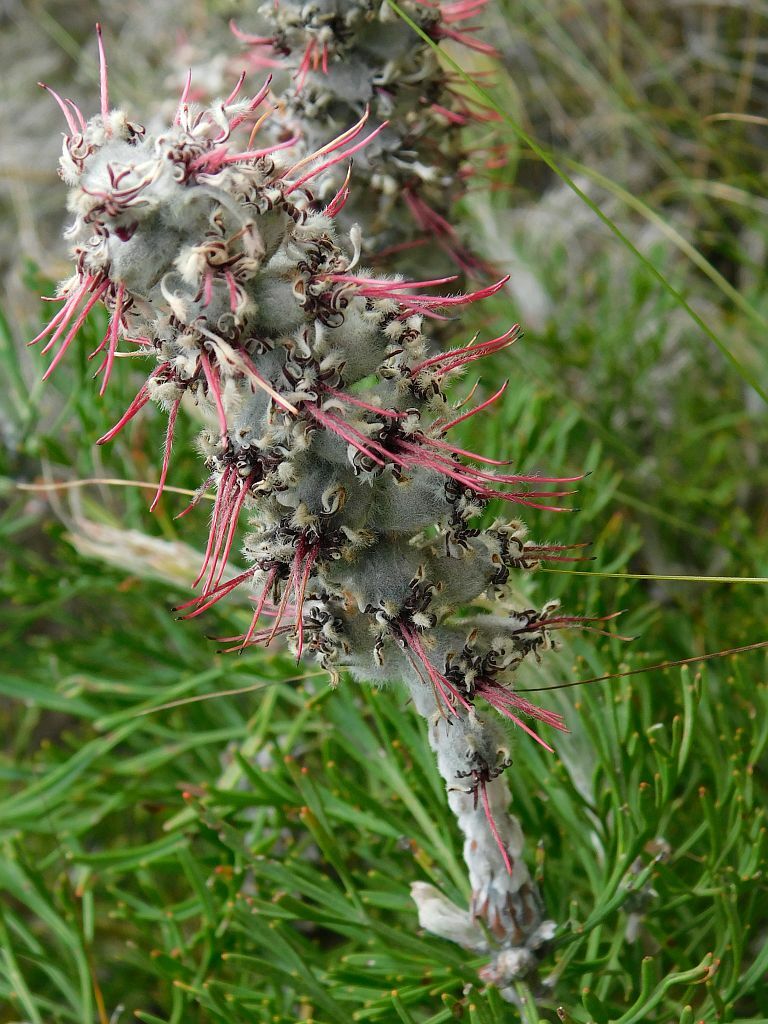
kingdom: Plantae
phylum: Tracheophyta
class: Magnoliopsida
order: Proteales
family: Proteaceae
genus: Paranomus
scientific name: Paranomus dispersus
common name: Long-head sceptre
